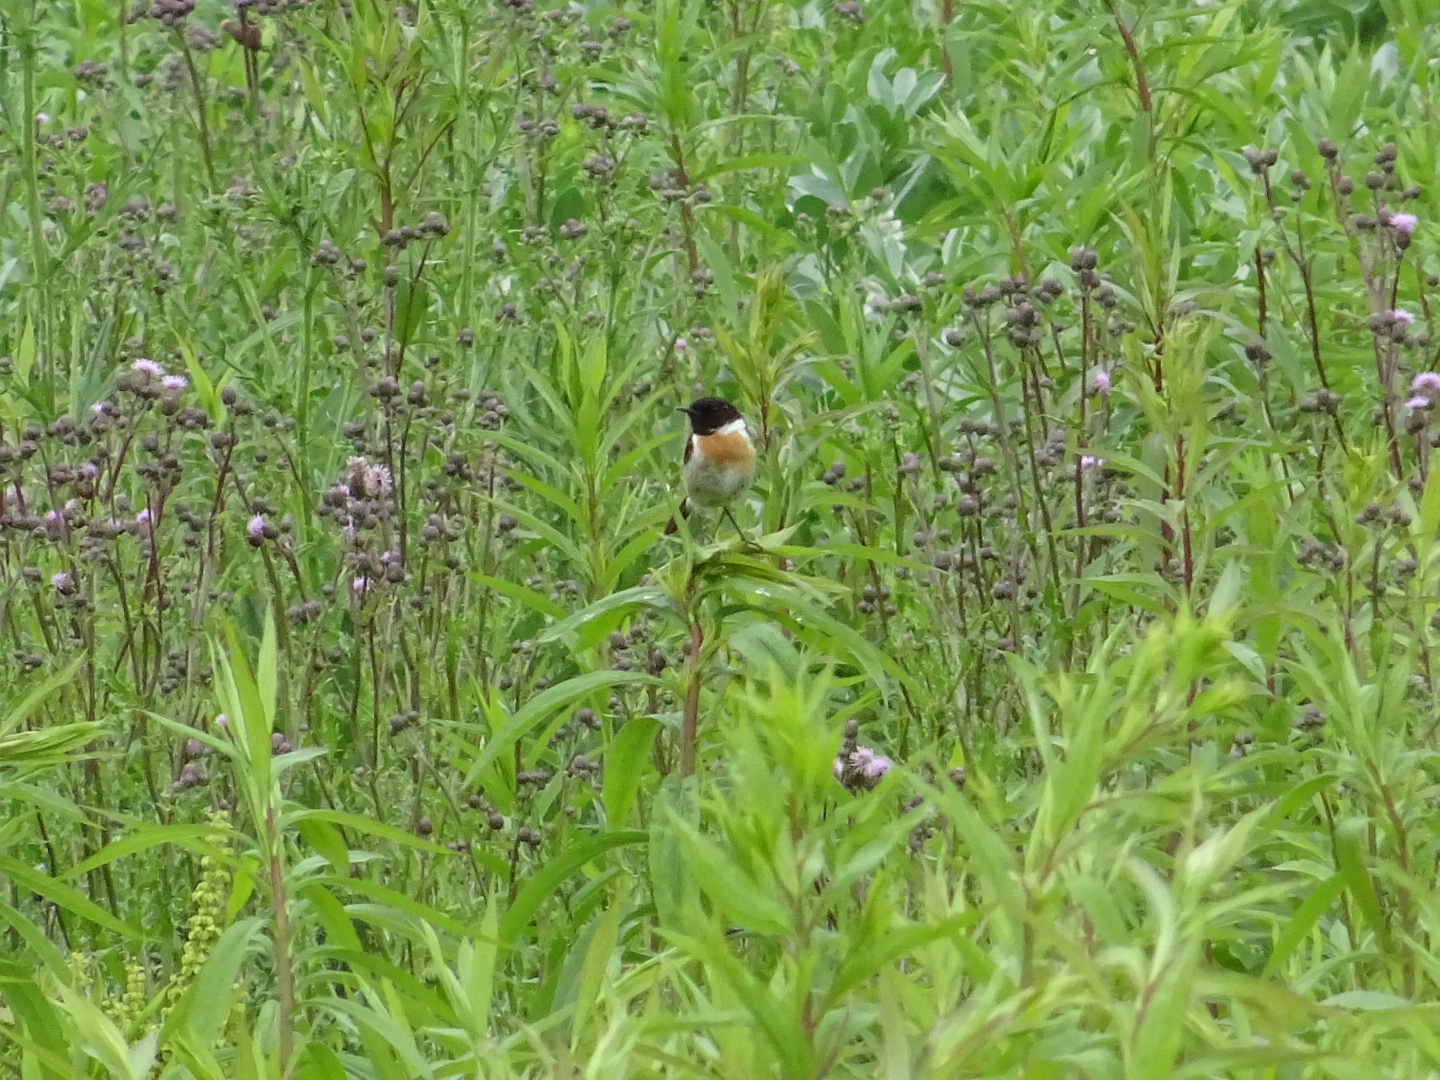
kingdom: Animalia
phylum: Chordata
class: Aves
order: Passeriformes
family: Muscicapidae
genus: Saxicola
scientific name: Saxicola rubicola
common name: European stonechat
